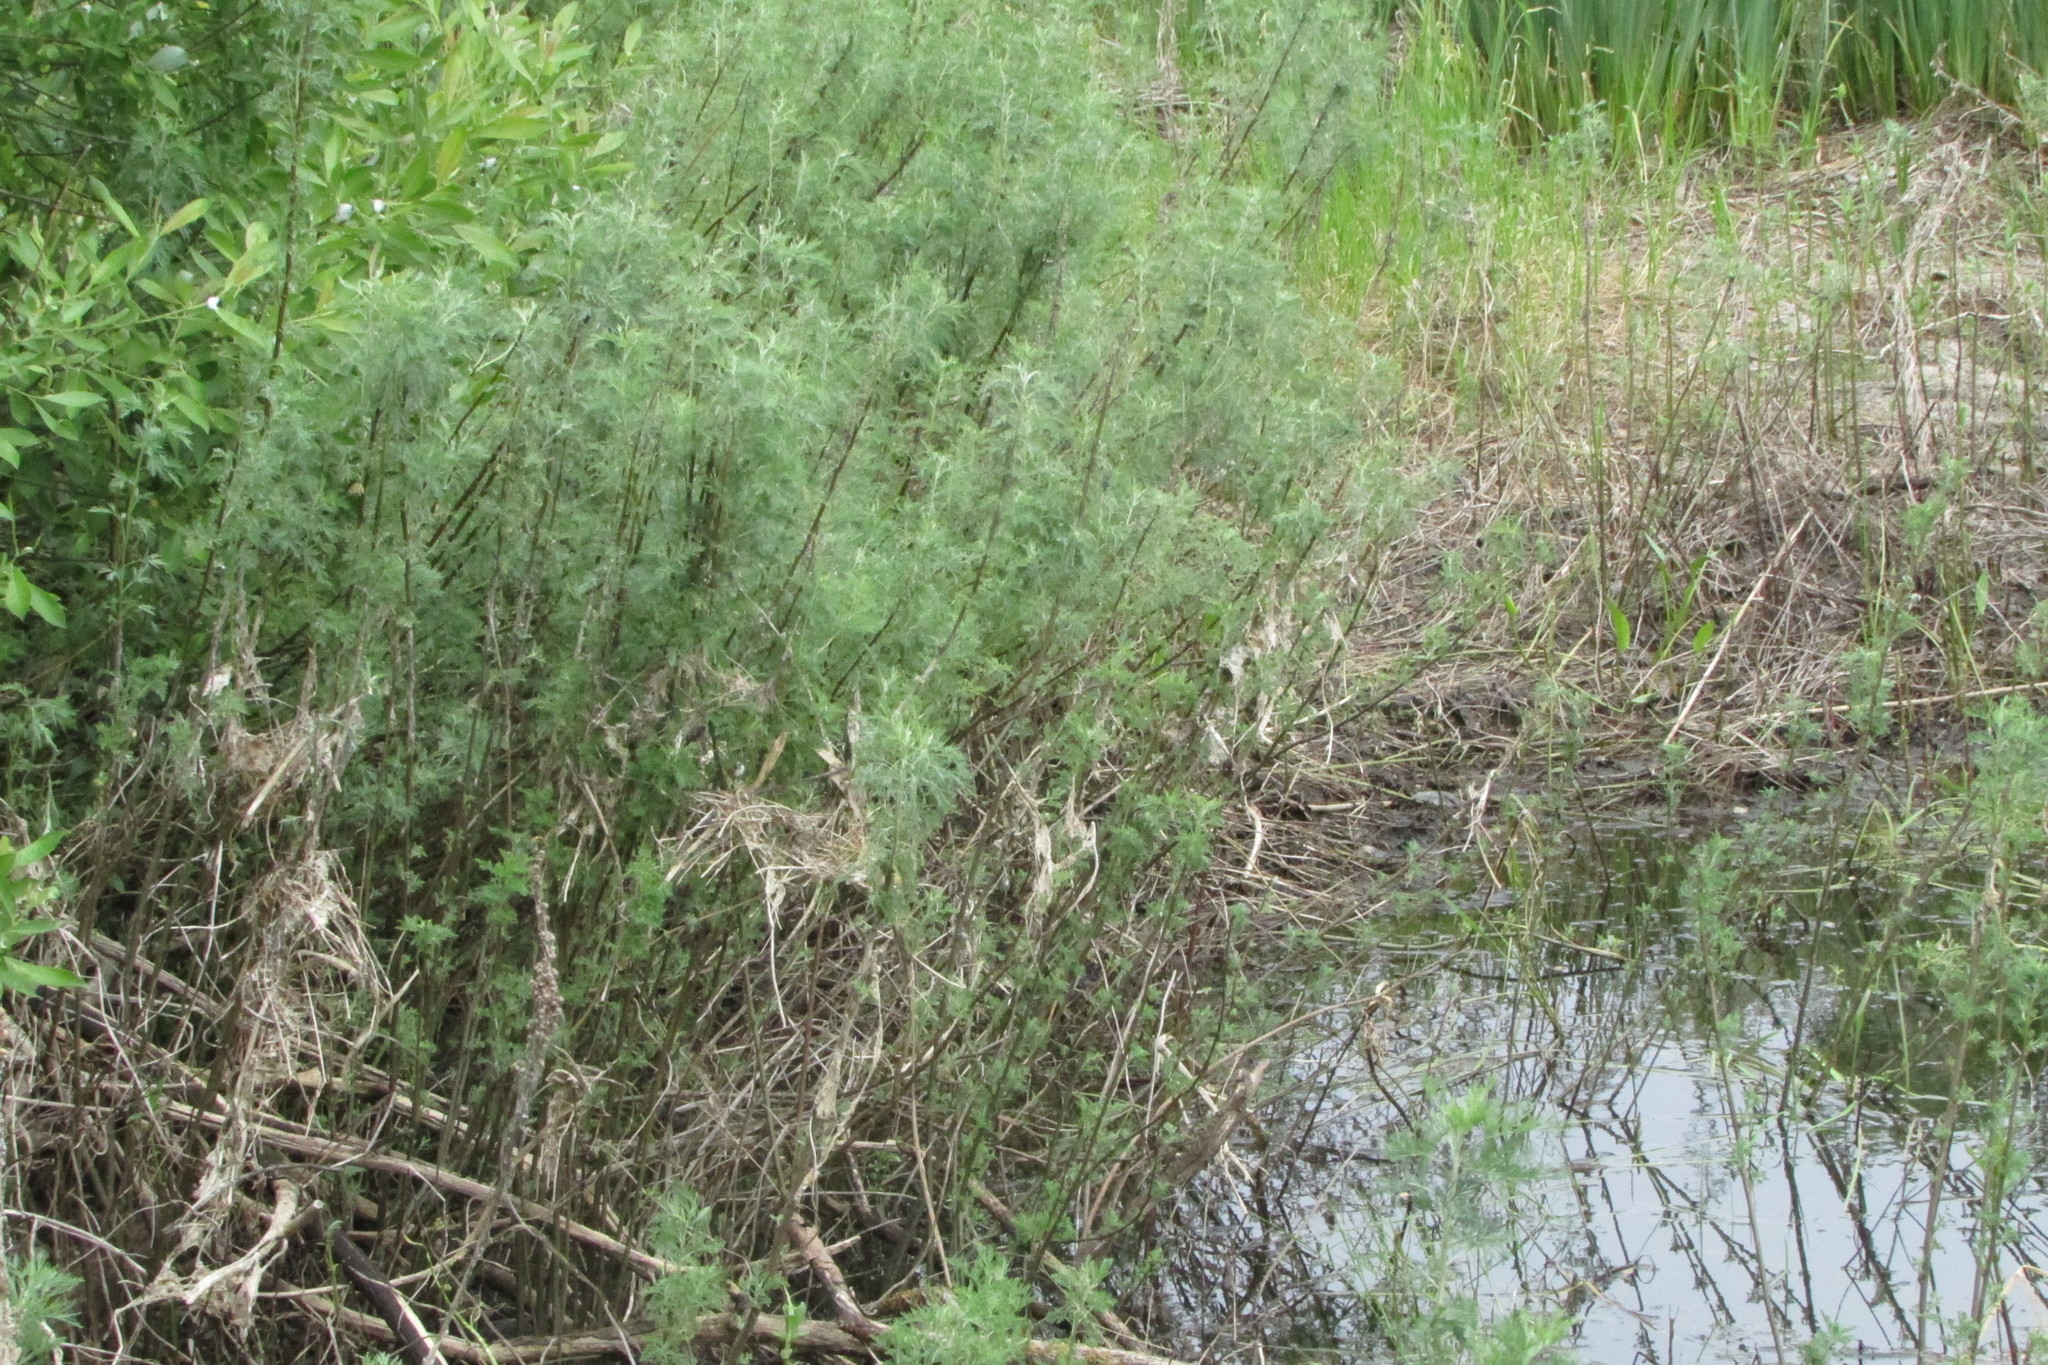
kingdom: Plantae
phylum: Tracheophyta
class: Magnoliopsida
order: Asterales
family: Asteraceae
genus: Artemisia
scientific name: Artemisia abrotanum
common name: Southernwood
